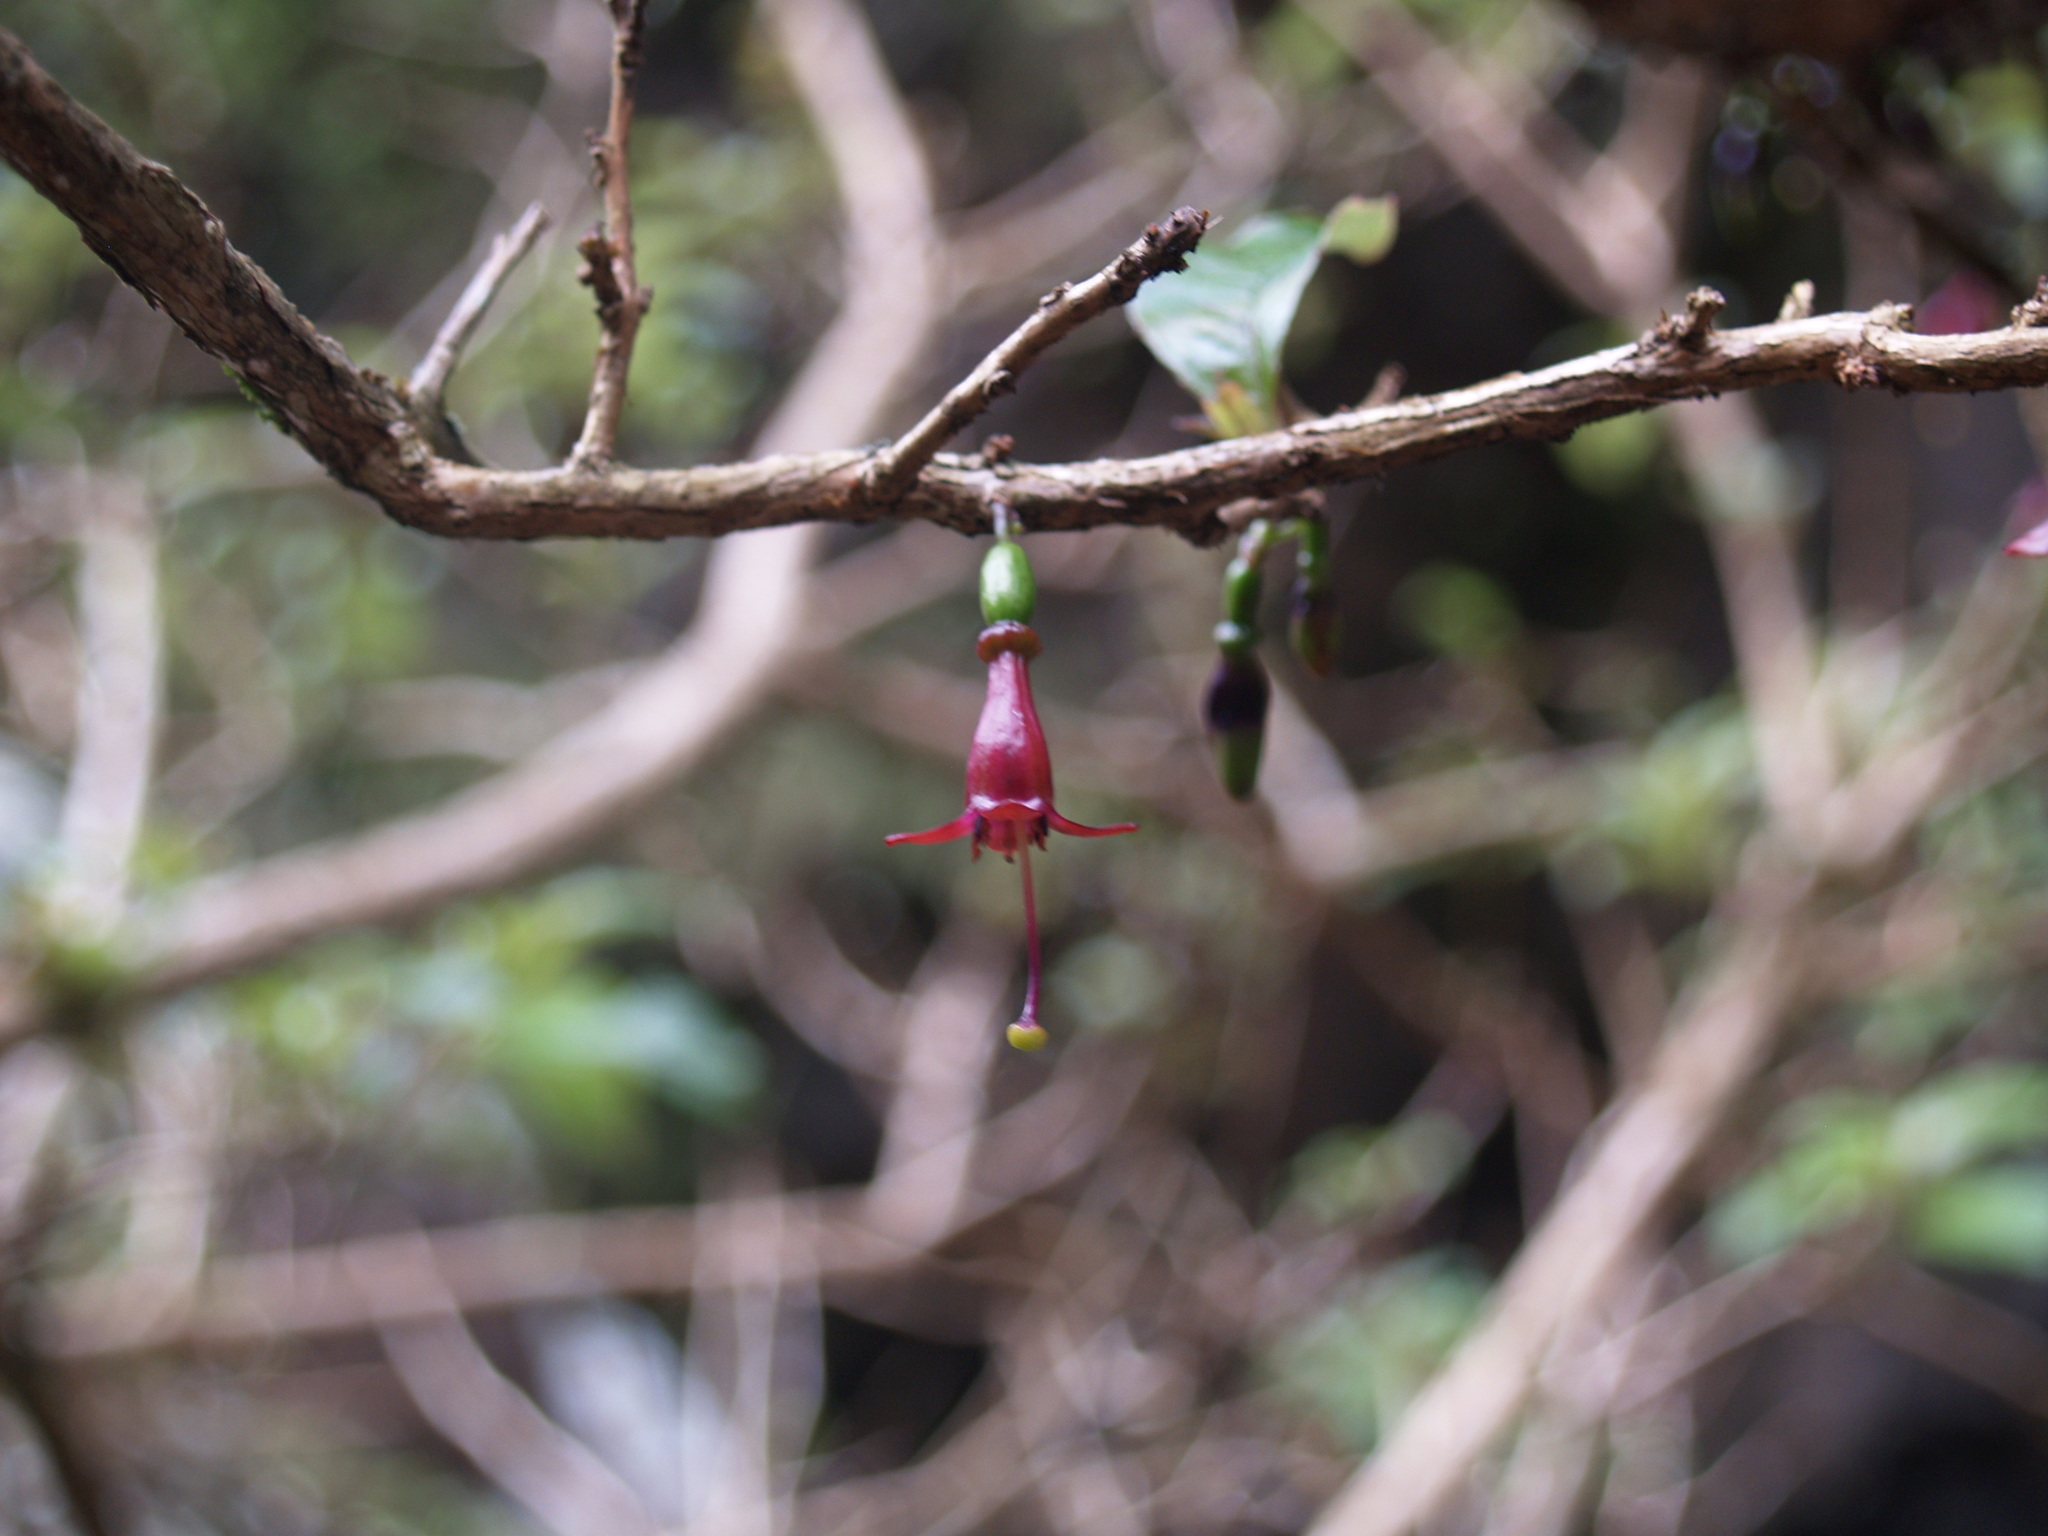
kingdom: Plantae
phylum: Tracheophyta
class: Magnoliopsida
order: Myrtales
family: Onagraceae
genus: Fuchsia
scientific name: Fuchsia excorticata
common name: Tree fuchsia
